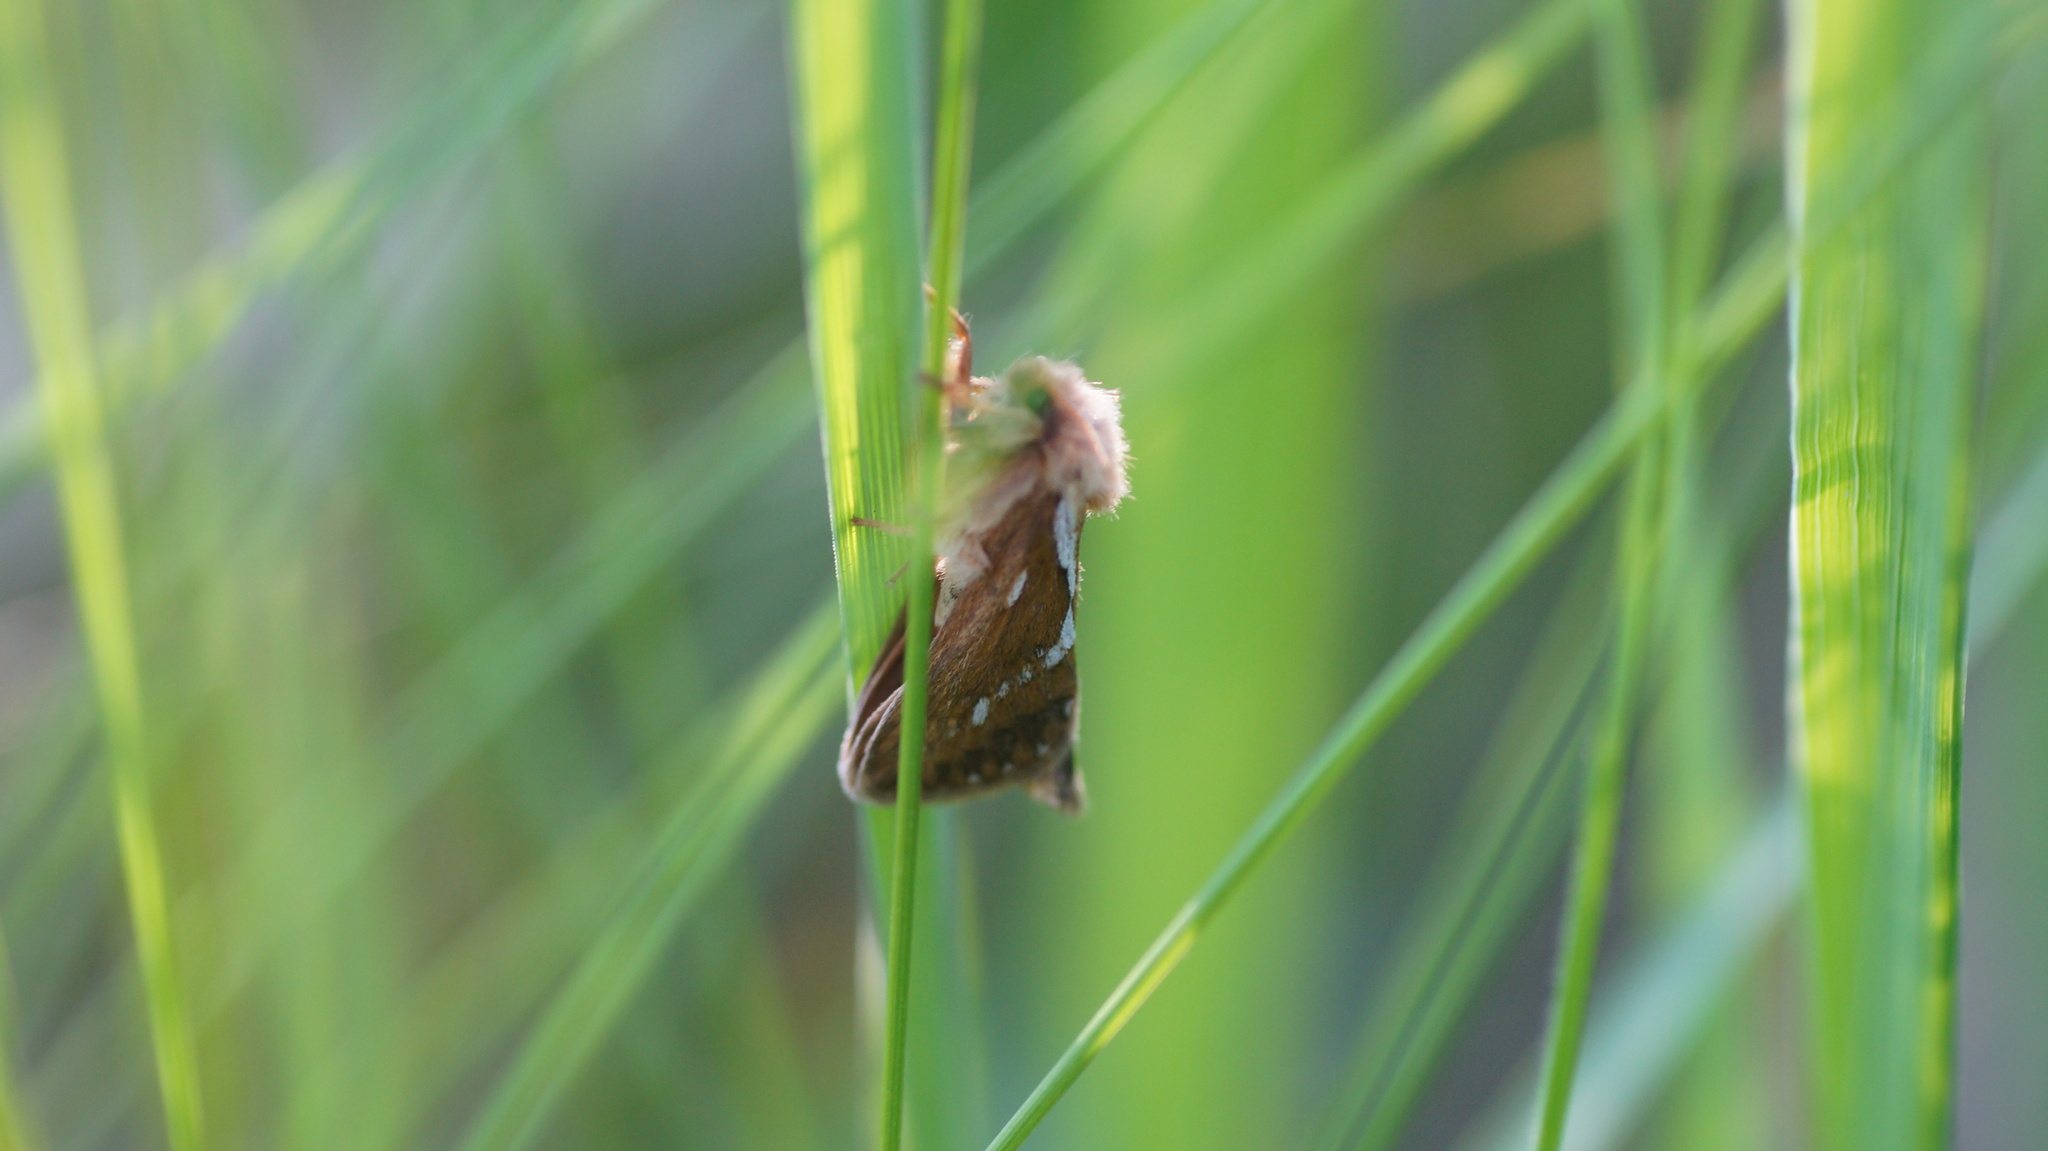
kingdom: Animalia
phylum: Arthropoda
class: Insecta
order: Lepidoptera
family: Hepialidae
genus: Korscheltellus
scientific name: Korscheltellus lupulina
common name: Common swift
